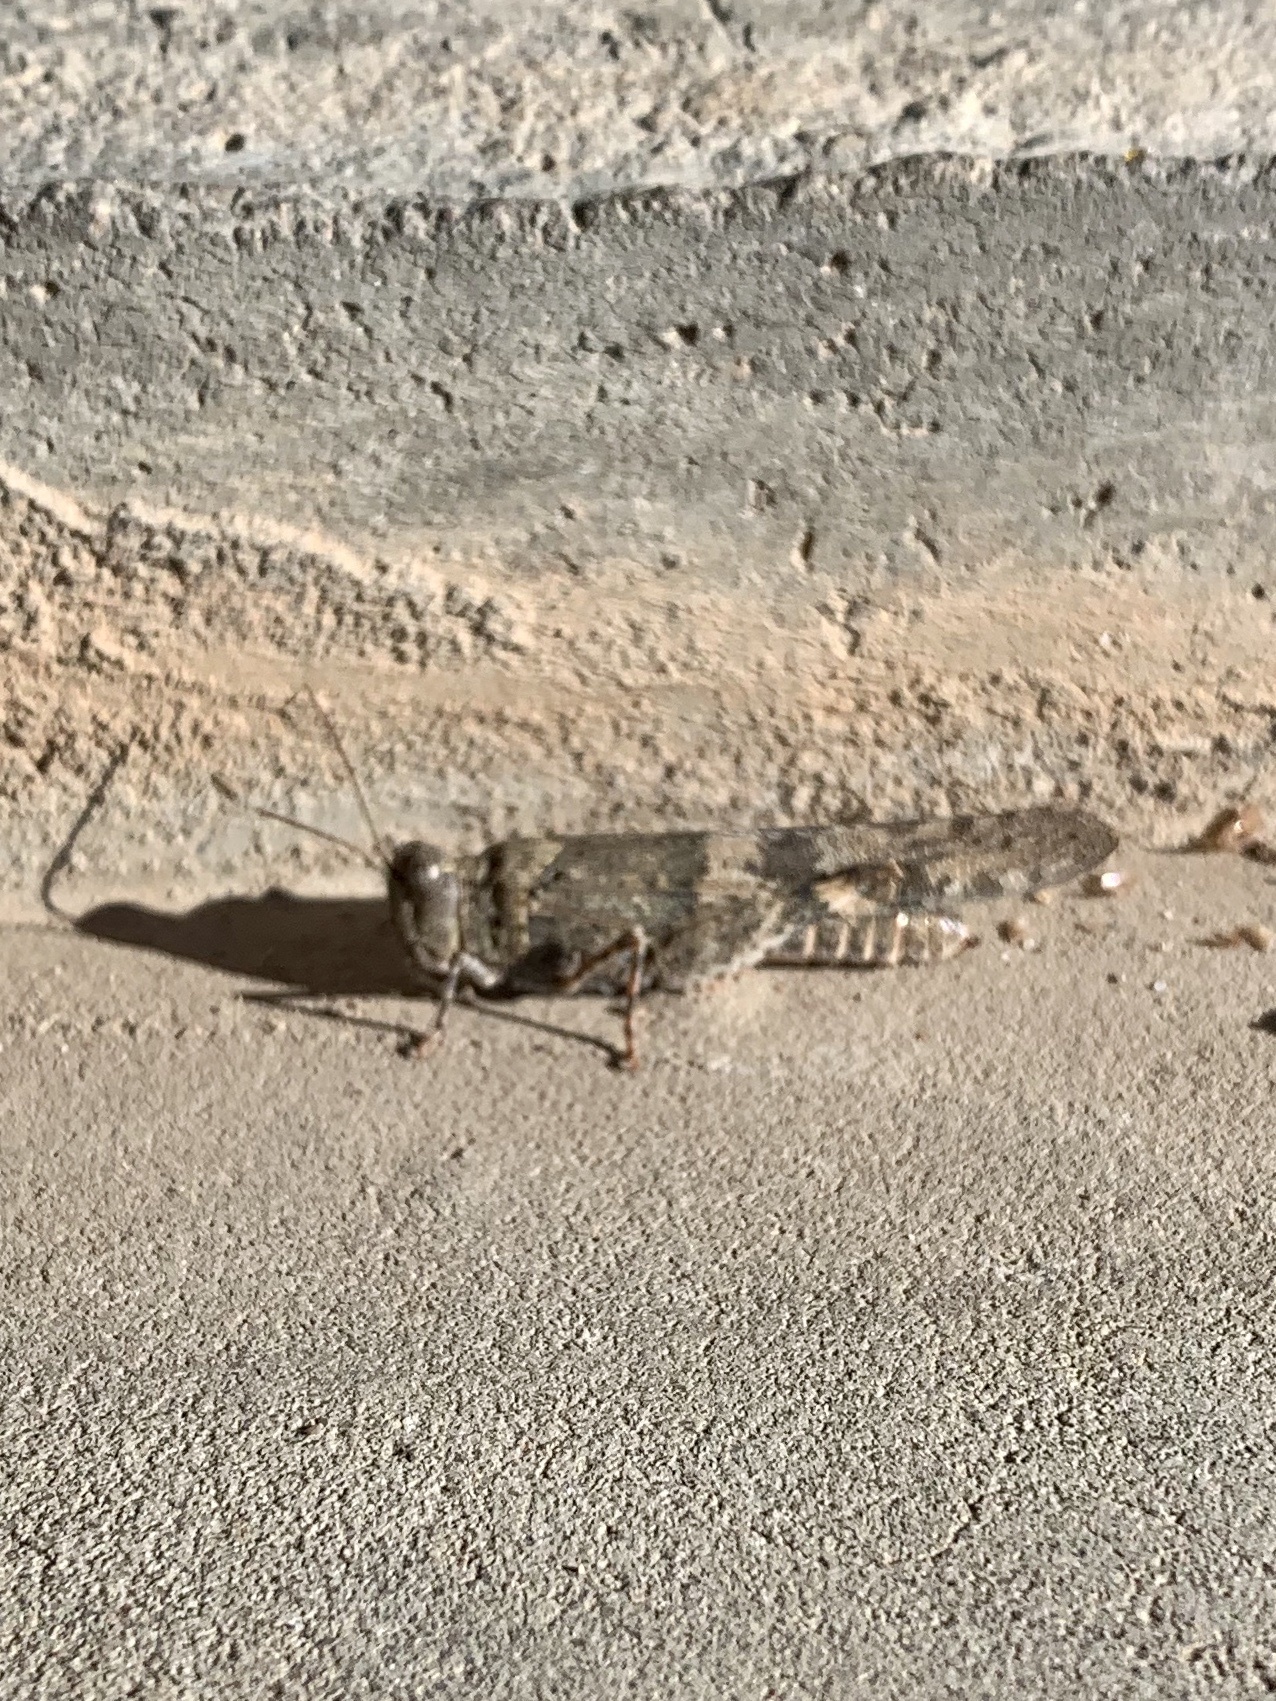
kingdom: Animalia
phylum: Arthropoda
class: Insecta
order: Orthoptera
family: Acrididae
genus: Trimerotropis
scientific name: Trimerotropis pallidipennis
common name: Pallid-winged grasshopper
